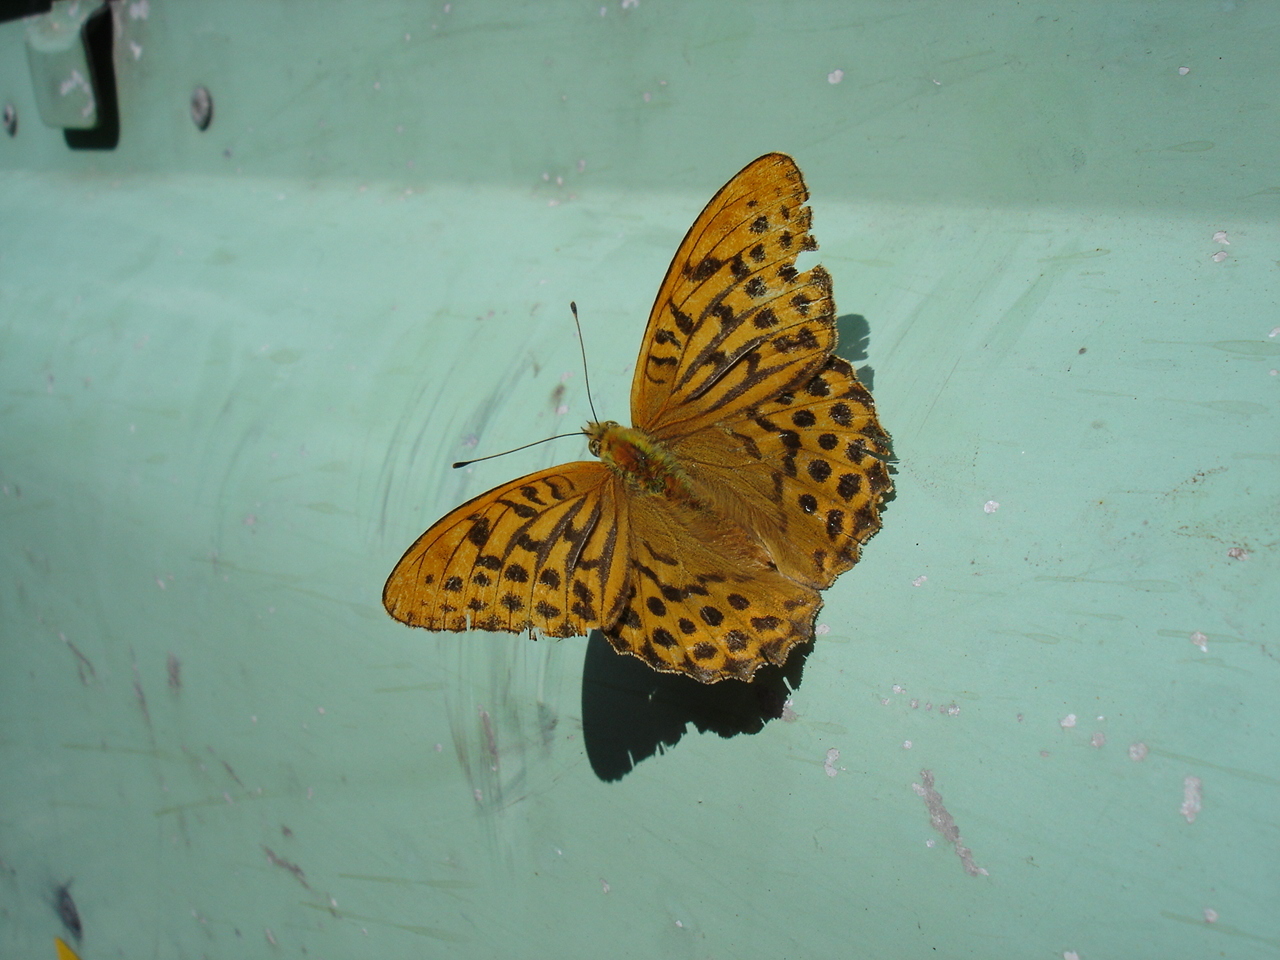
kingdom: Animalia
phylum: Arthropoda
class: Insecta
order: Lepidoptera
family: Nymphalidae
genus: Argynnis
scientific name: Argynnis paphia
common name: Silver-washed fritillary
